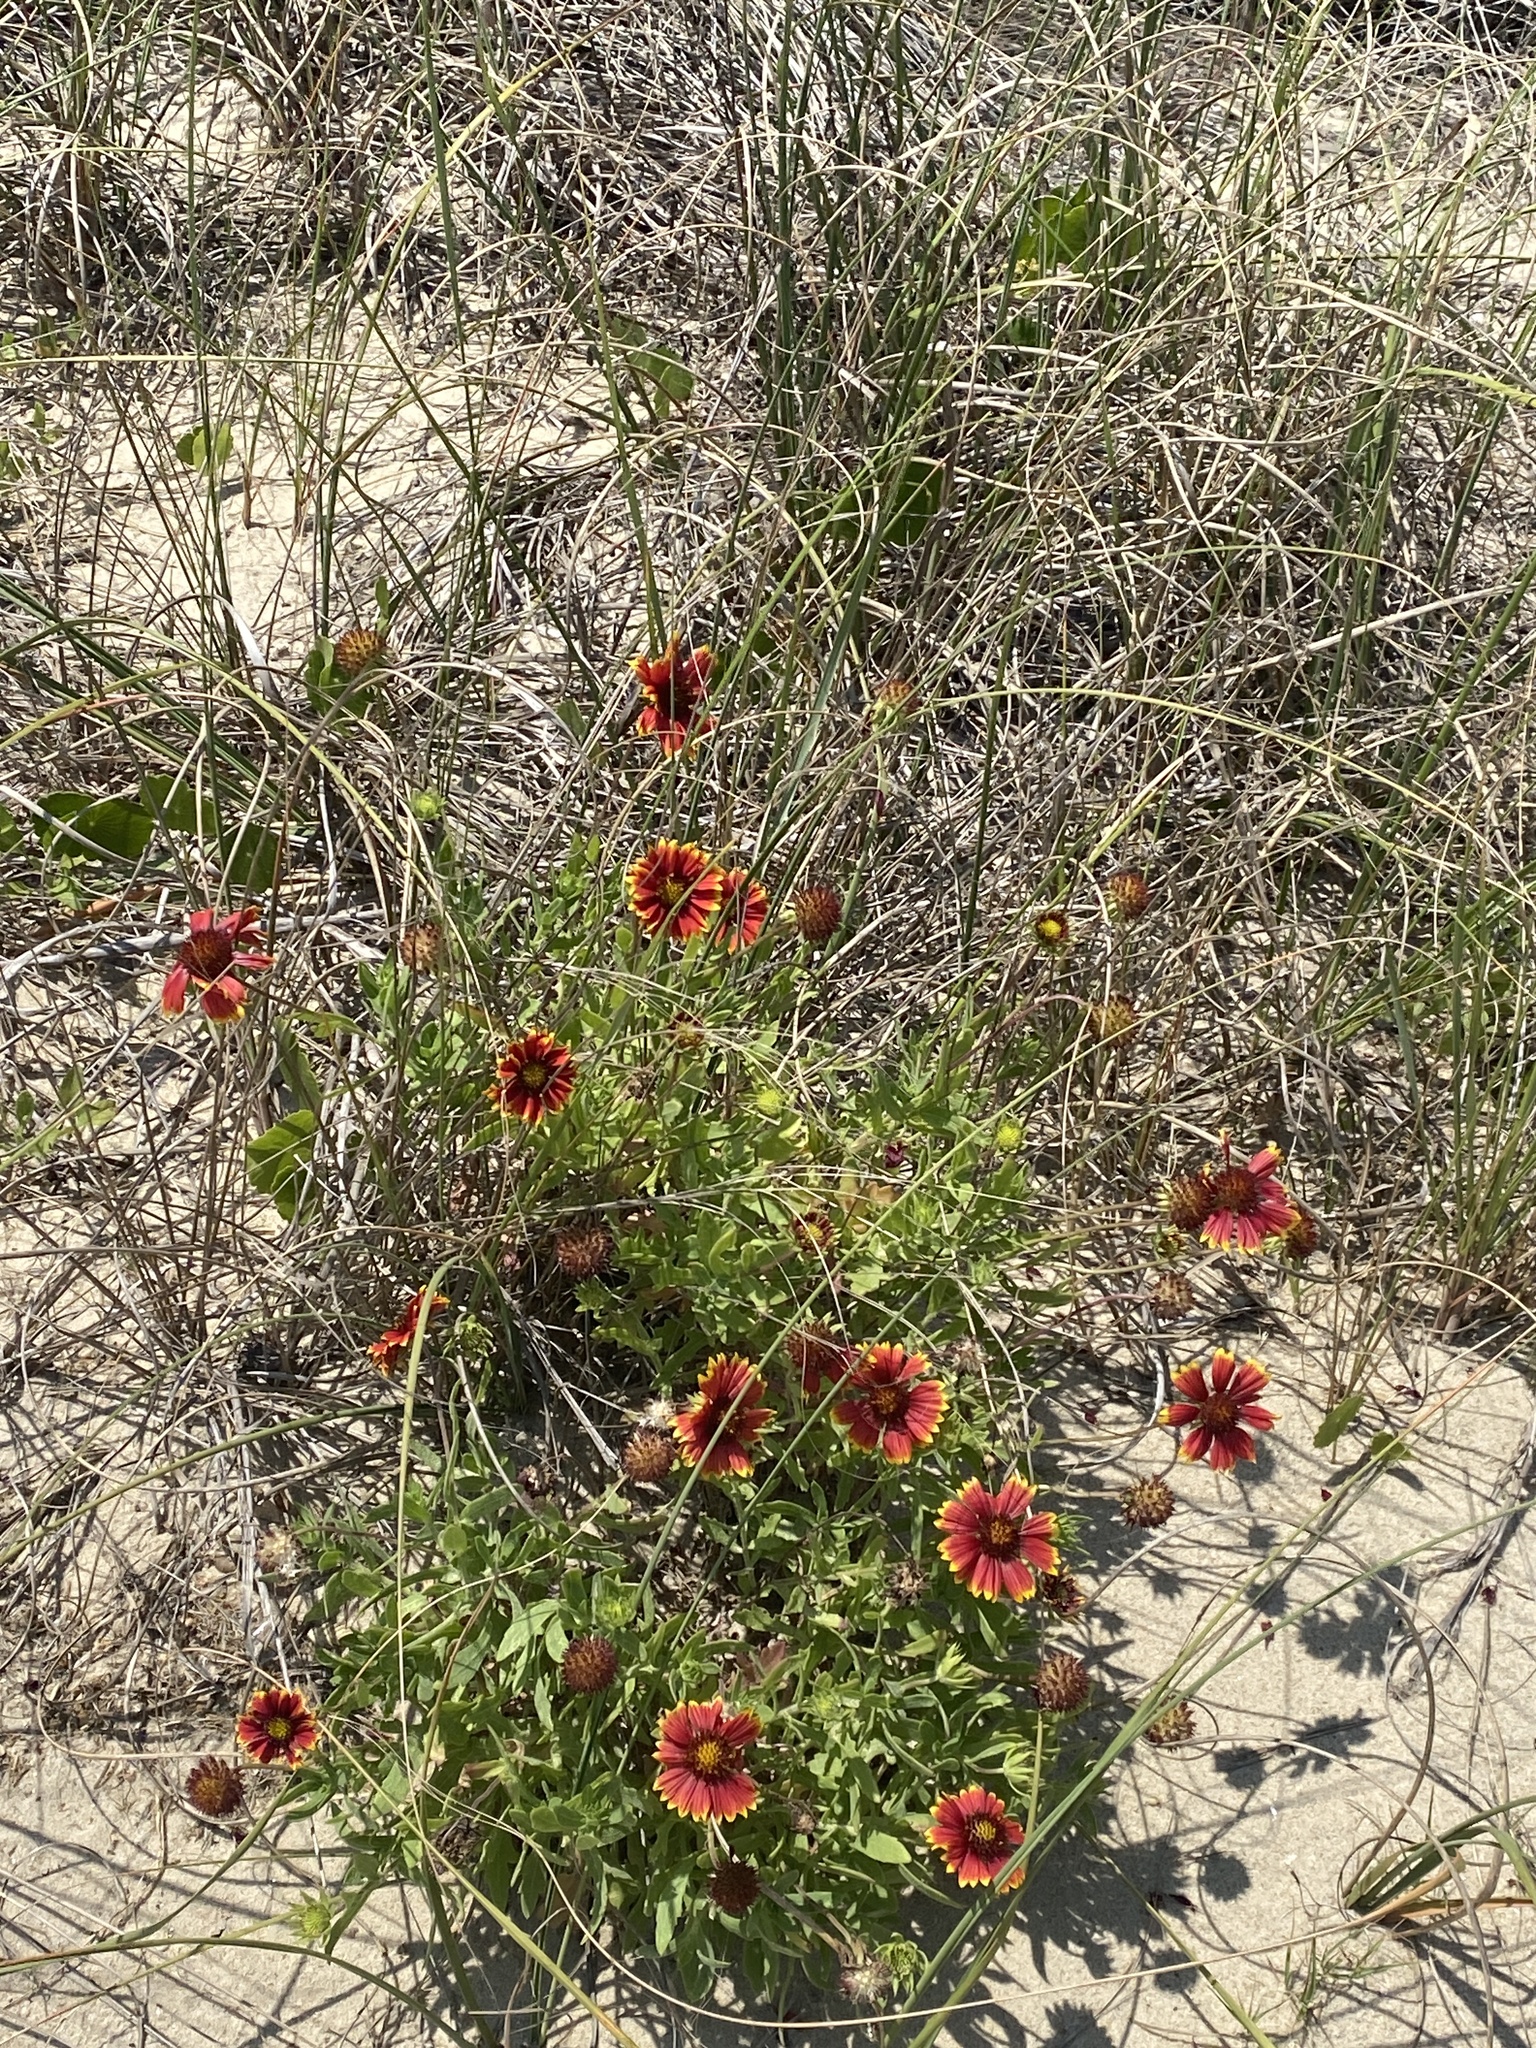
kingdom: Plantae
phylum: Tracheophyta
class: Magnoliopsida
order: Asterales
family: Asteraceae
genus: Gaillardia
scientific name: Gaillardia pulchella
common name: Firewheel
